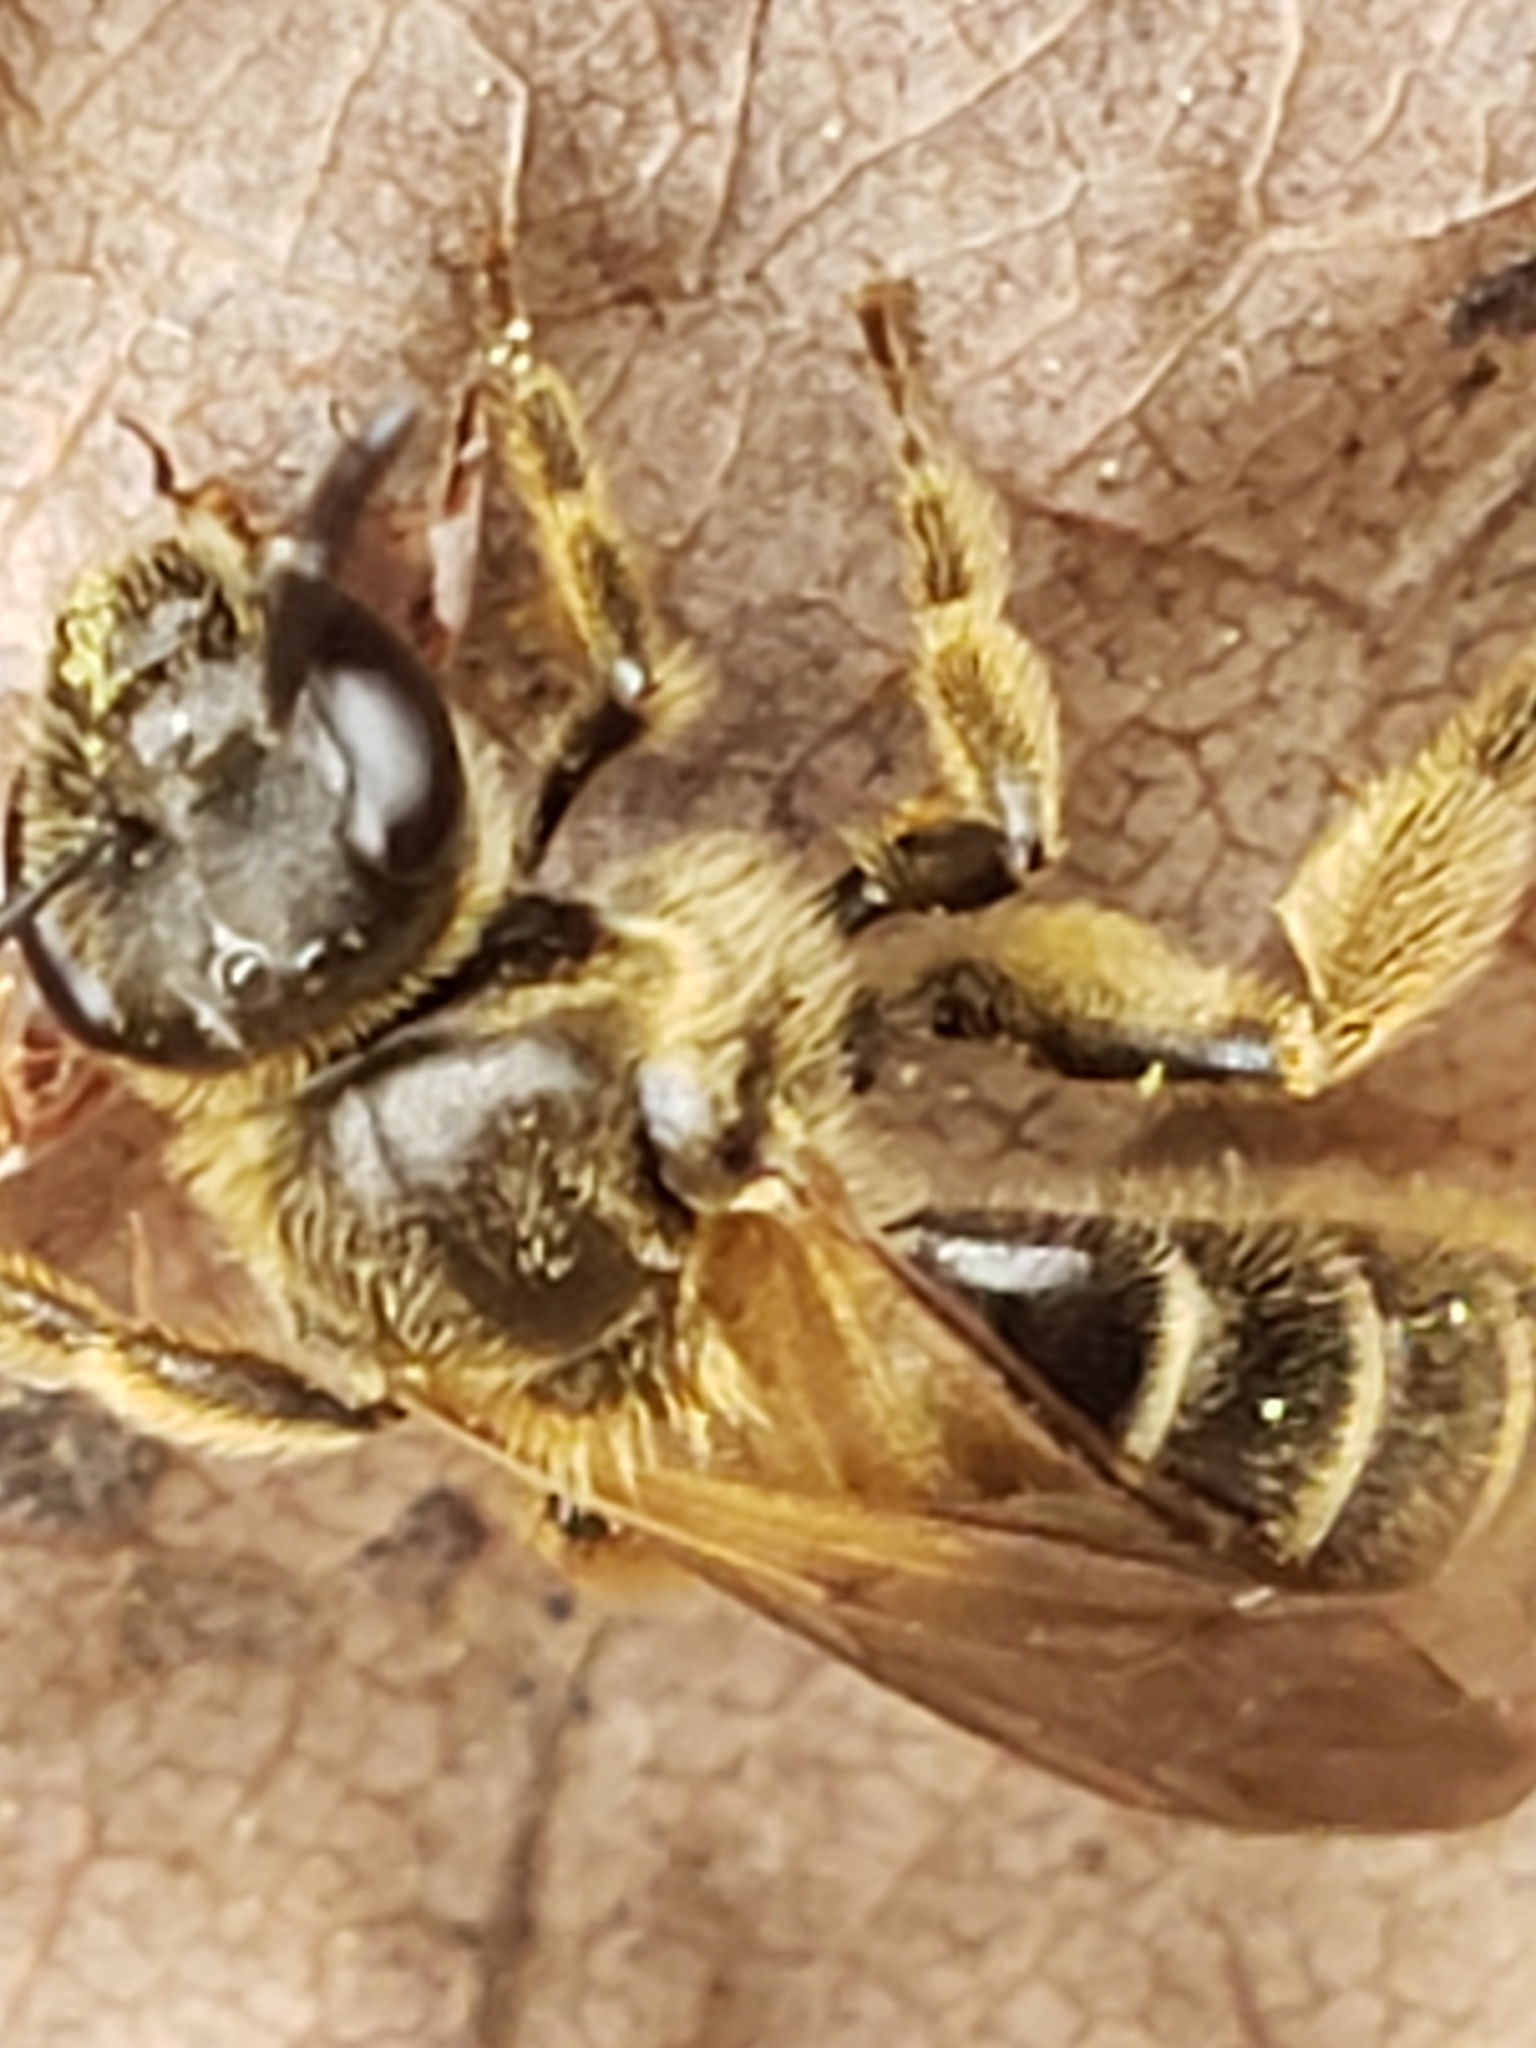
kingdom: Animalia
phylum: Arthropoda
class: Insecta
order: Hymenoptera
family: Halictidae
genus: Lasioglossum
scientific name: Lasioglossum quebecense
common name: Quebec sweat bee
